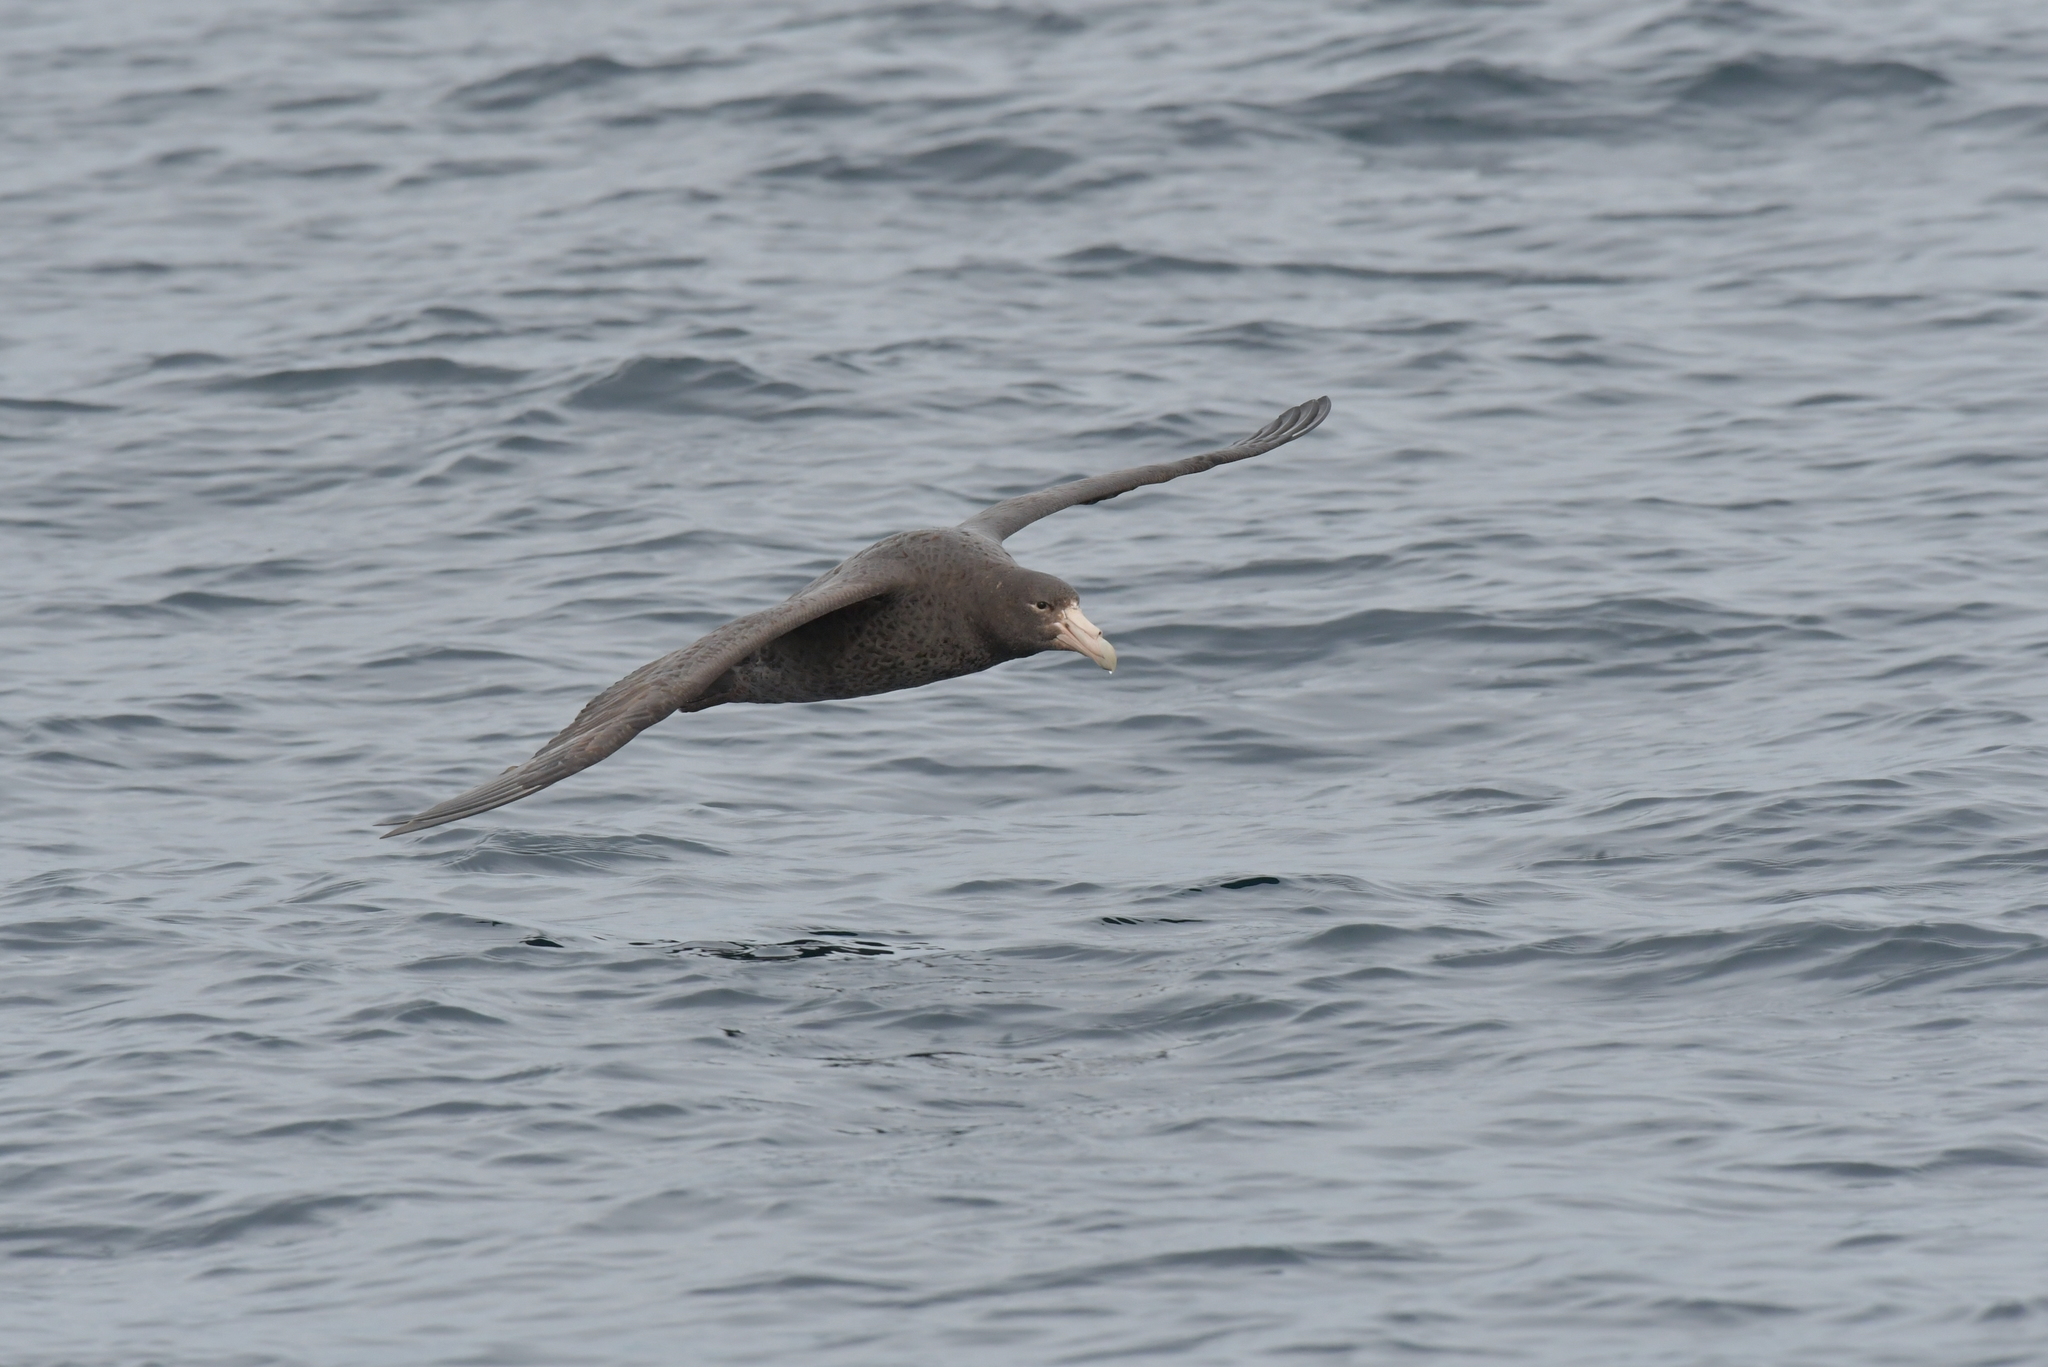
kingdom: Animalia
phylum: Chordata
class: Aves
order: Procellariiformes
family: Procellariidae
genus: Macronectes
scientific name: Macronectes giganteus
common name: Southern giant petrel
